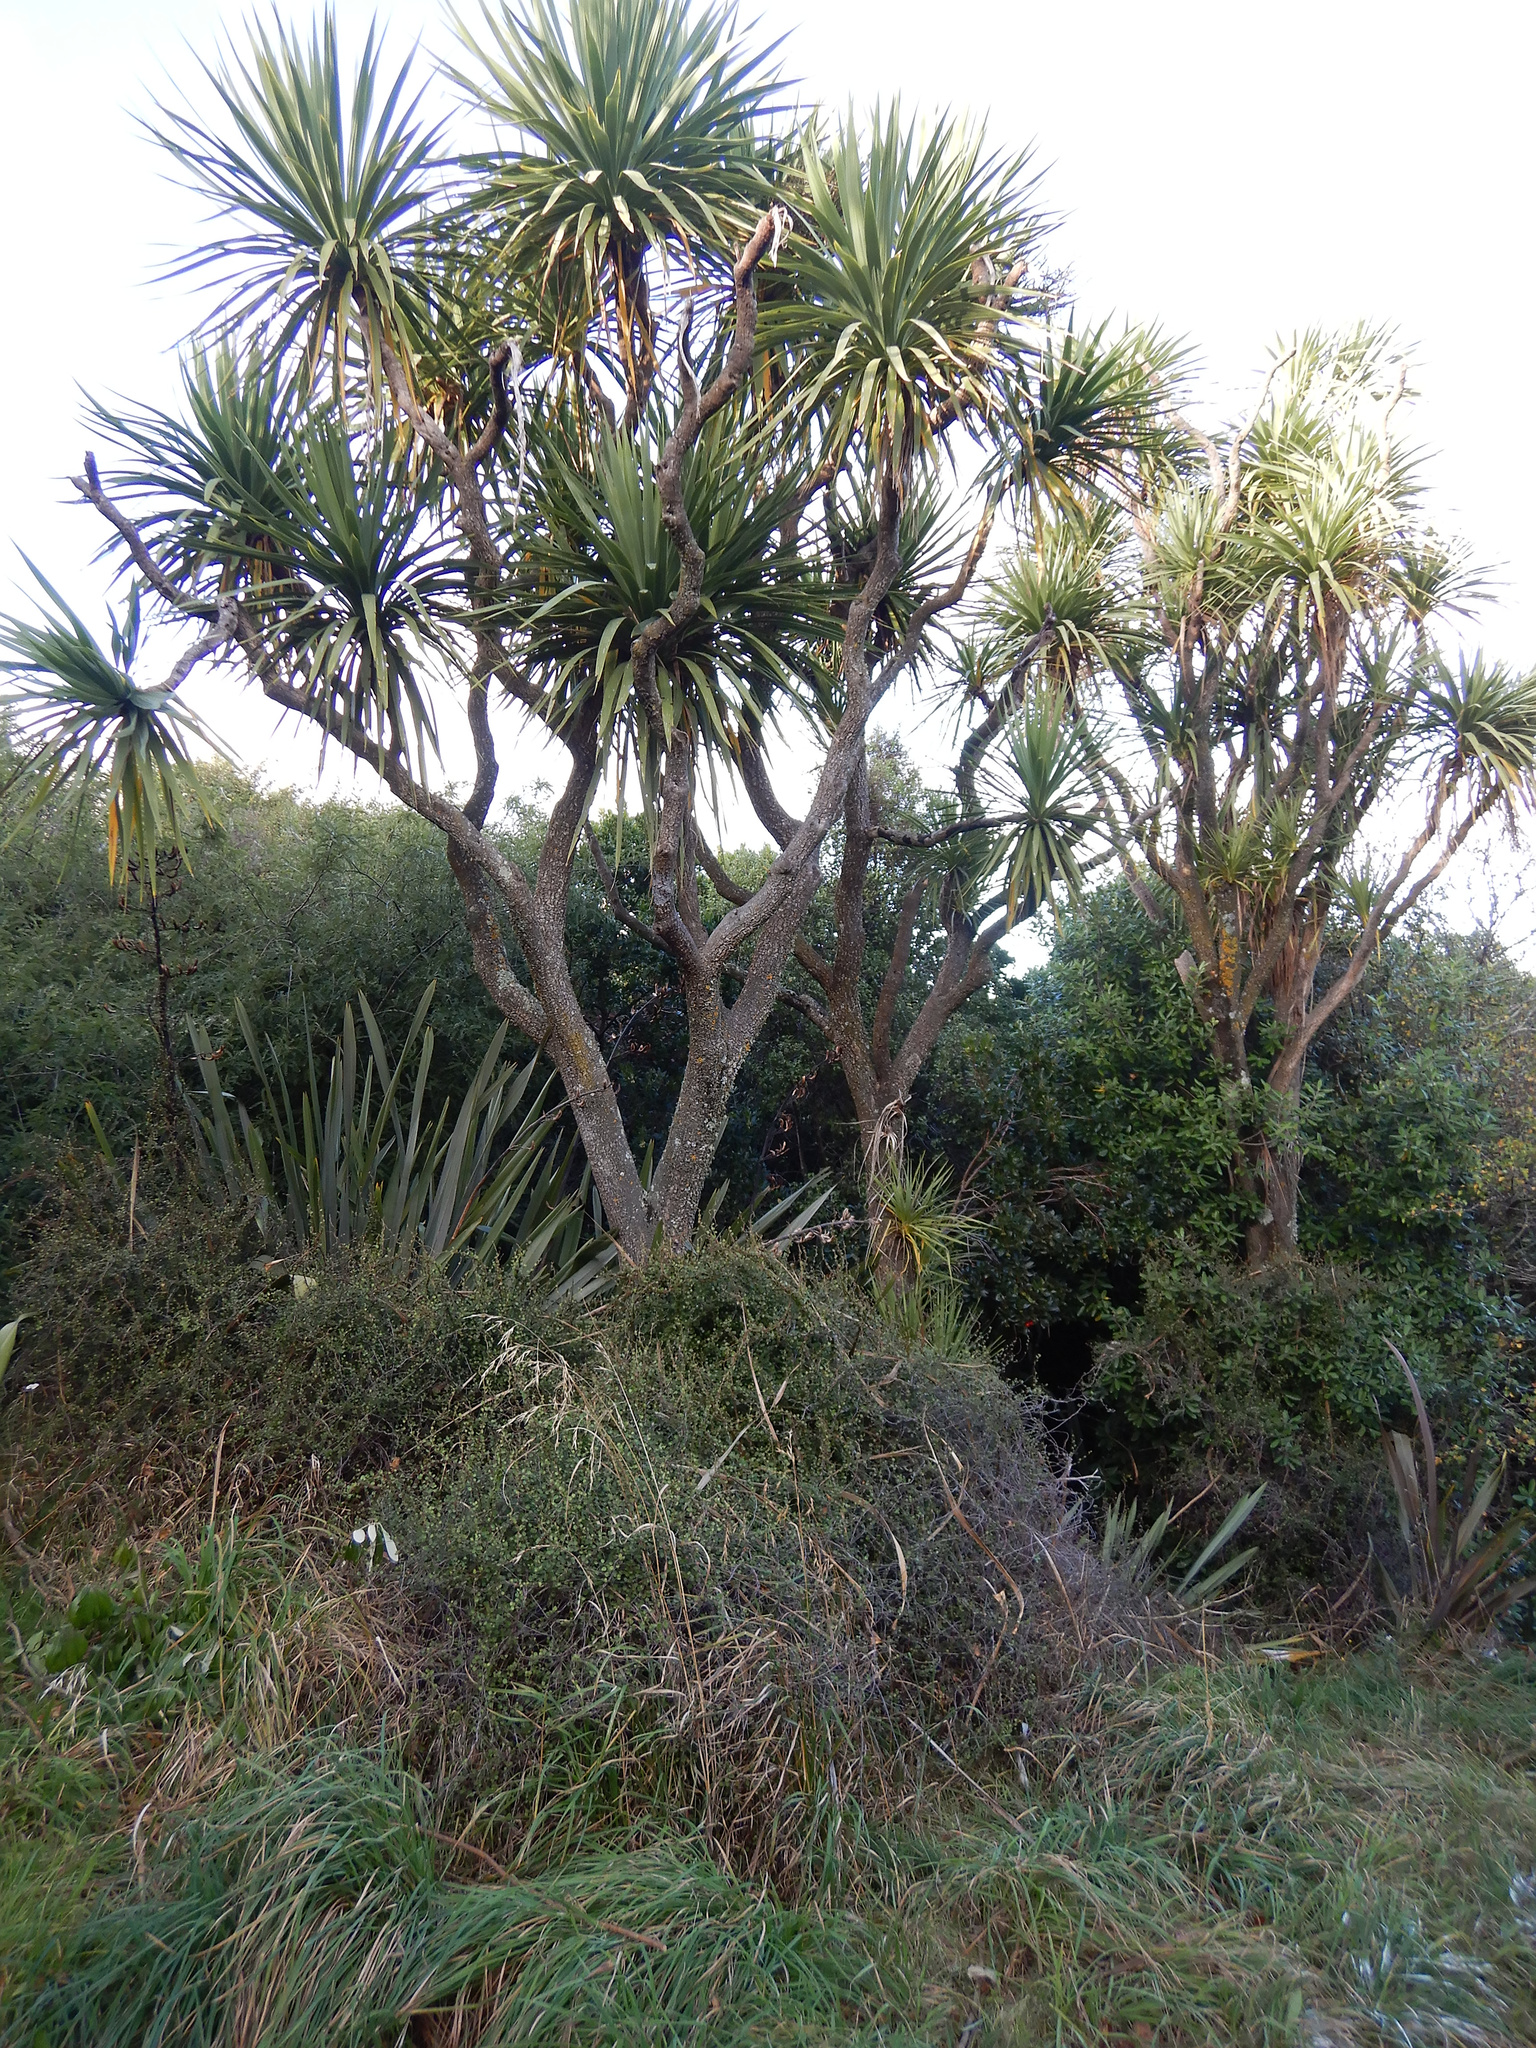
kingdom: Plantae
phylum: Tracheophyta
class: Liliopsida
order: Asparagales
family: Asparagaceae
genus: Cordyline
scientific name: Cordyline australis
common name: Cabbage-palm
